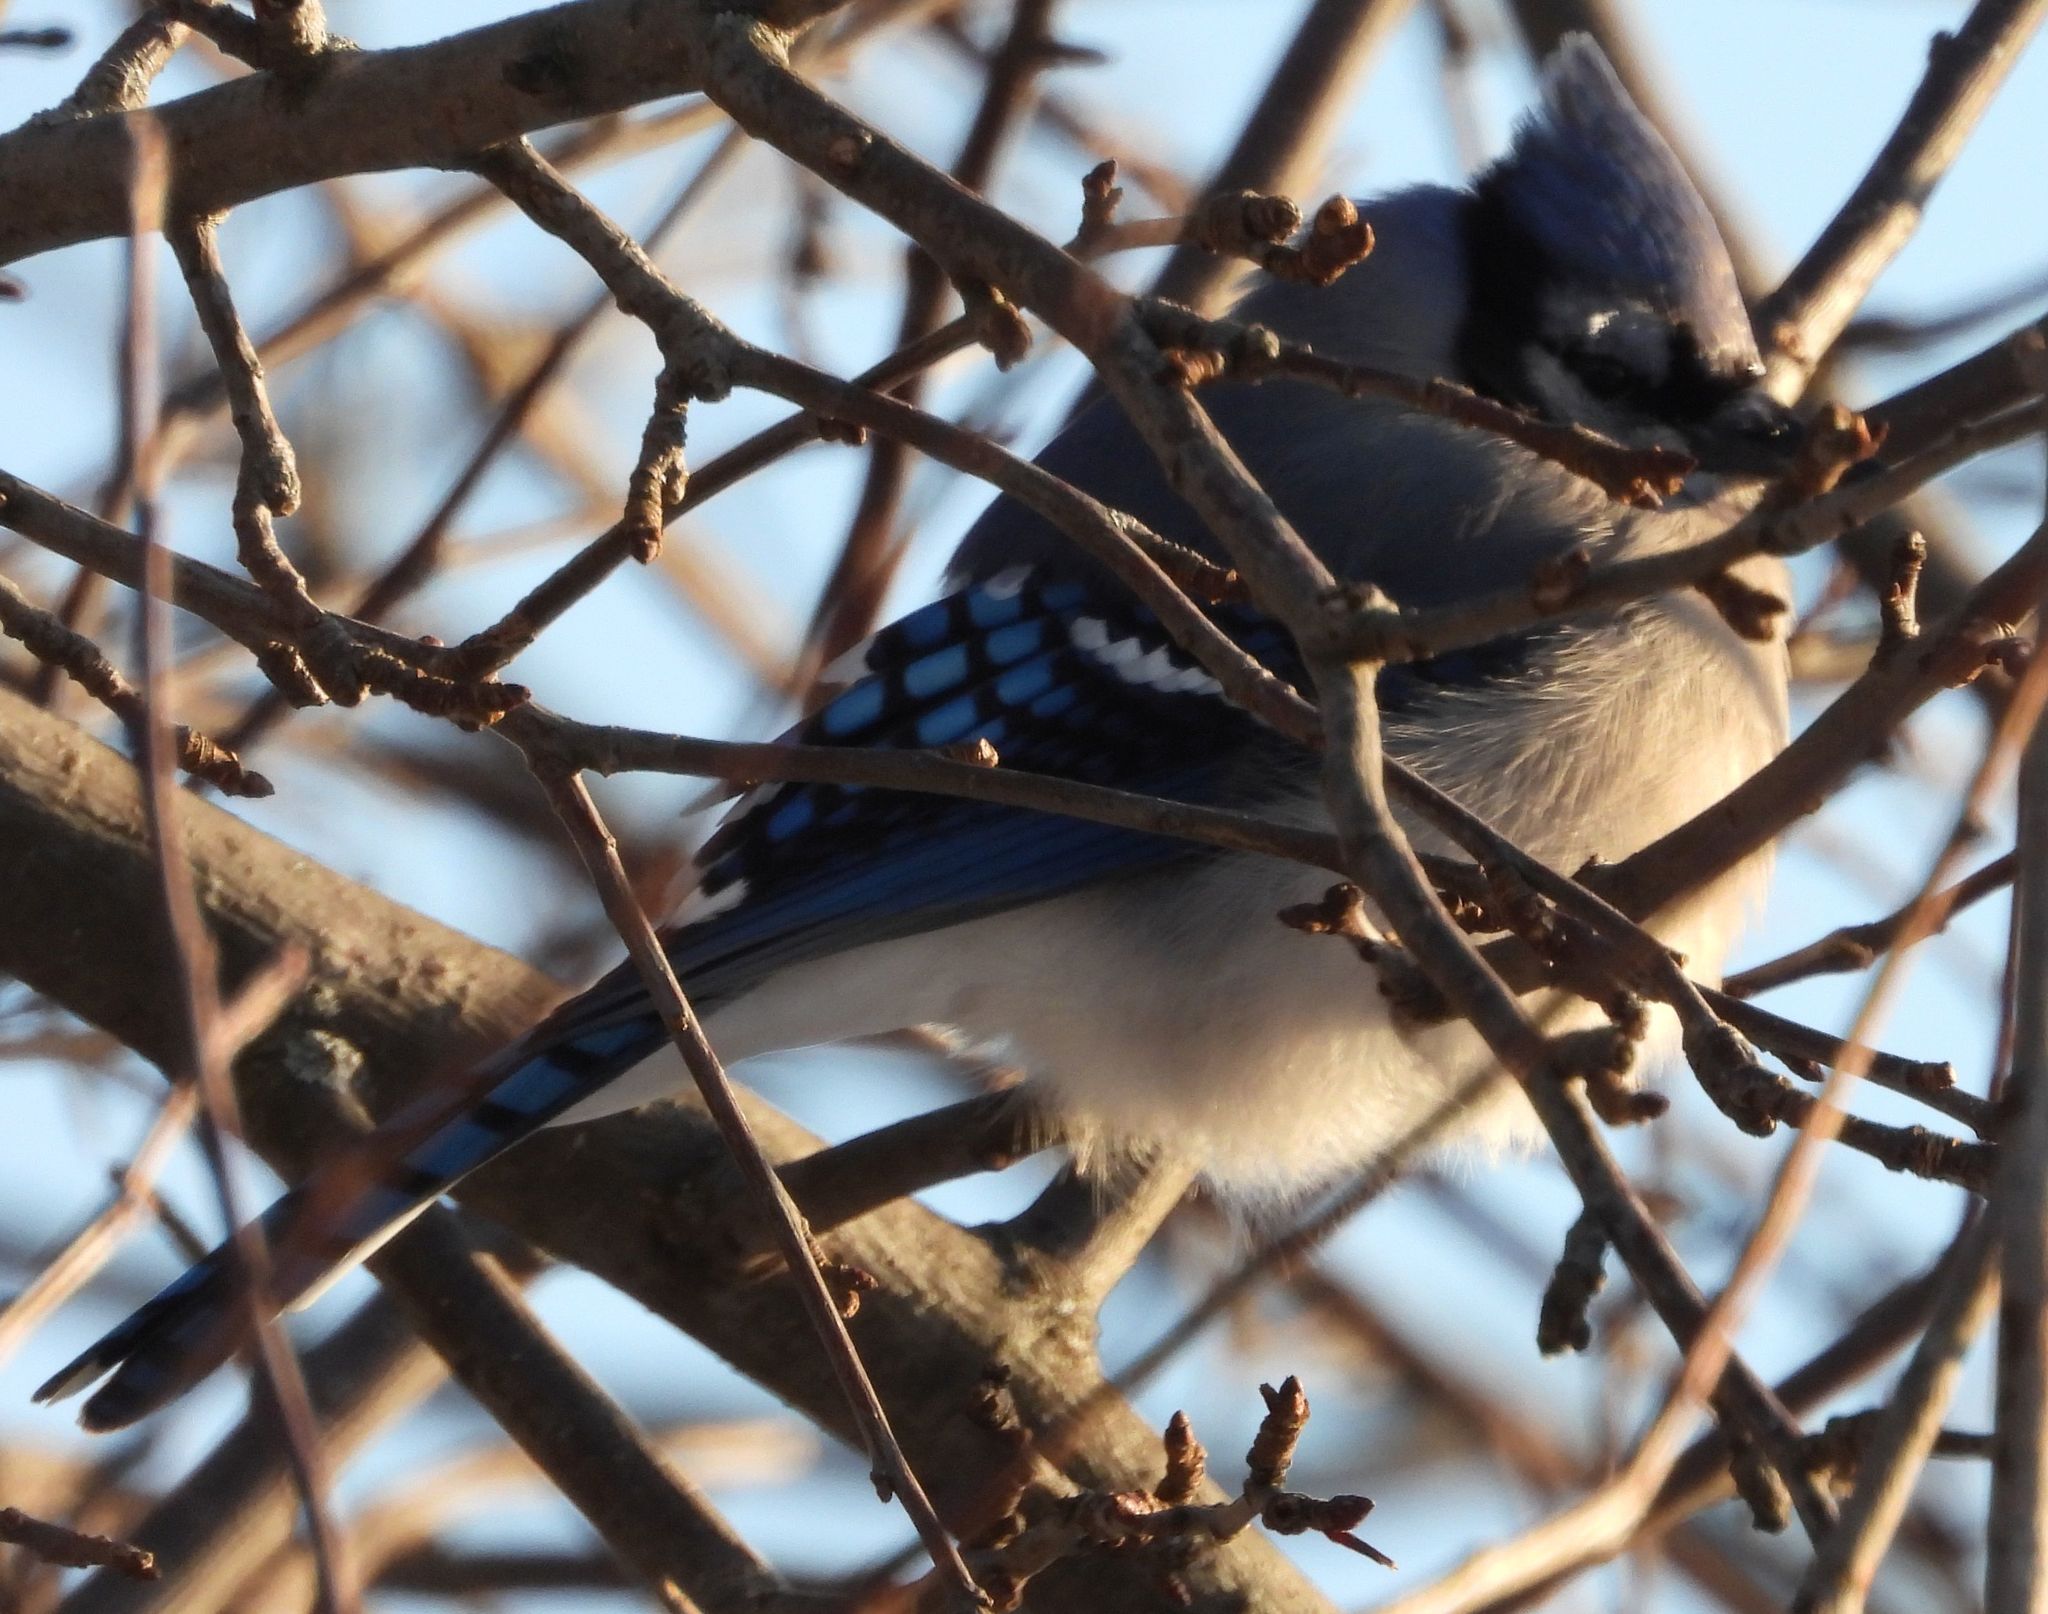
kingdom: Animalia
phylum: Chordata
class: Aves
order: Passeriformes
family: Corvidae
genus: Cyanocitta
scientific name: Cyanocitta cristata
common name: Blue jay
